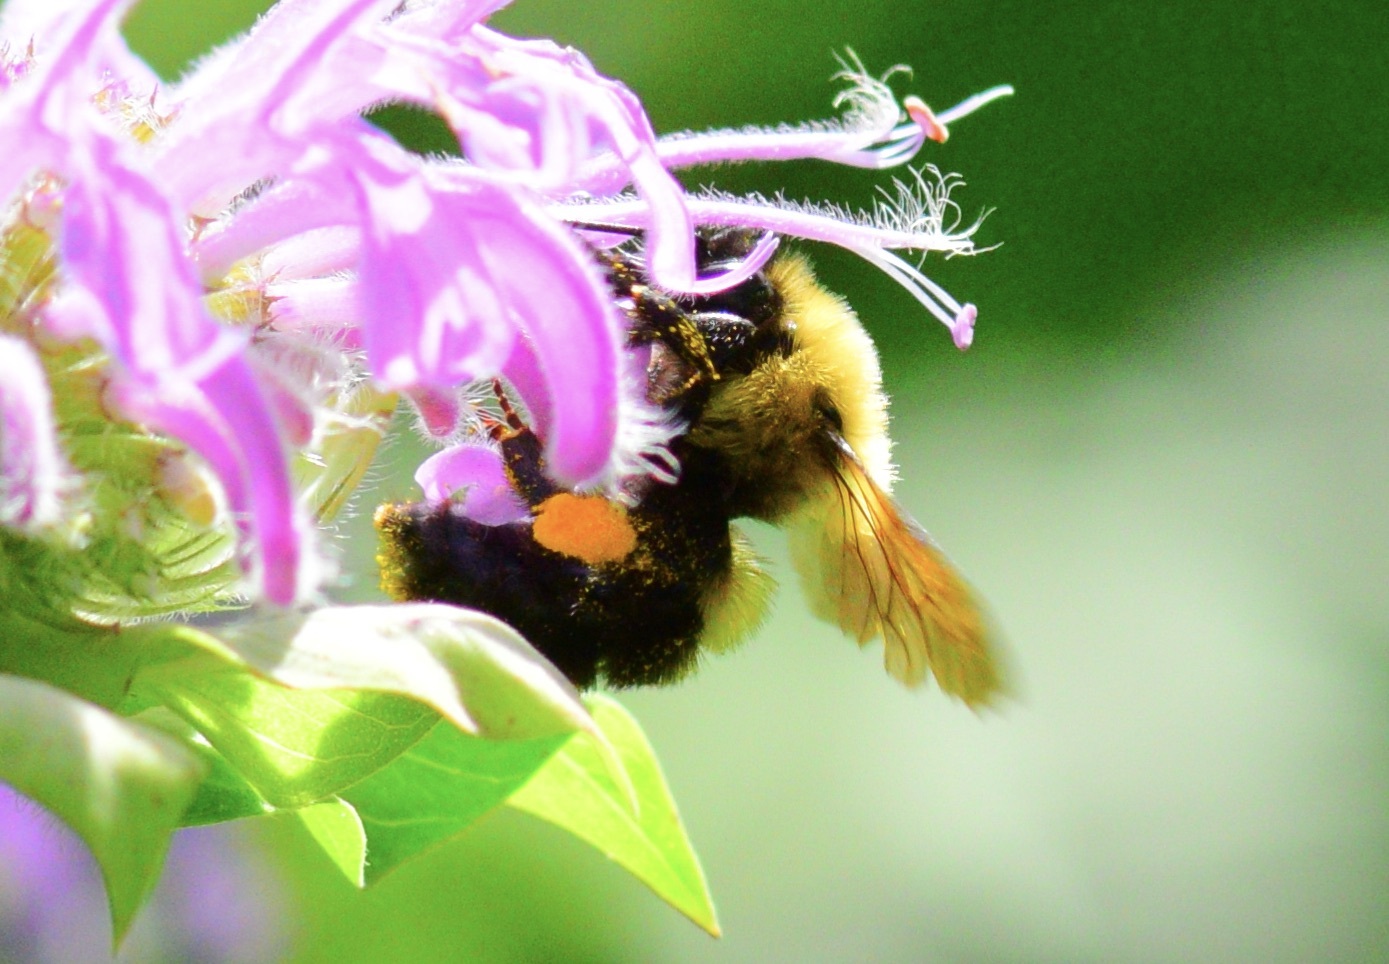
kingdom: Animalia
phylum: Arthropoda
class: Insecta
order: Hymenoptera
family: Apidae
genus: Bombus
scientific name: Bombus bimaculatus
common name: Two-spotted bumble bee
